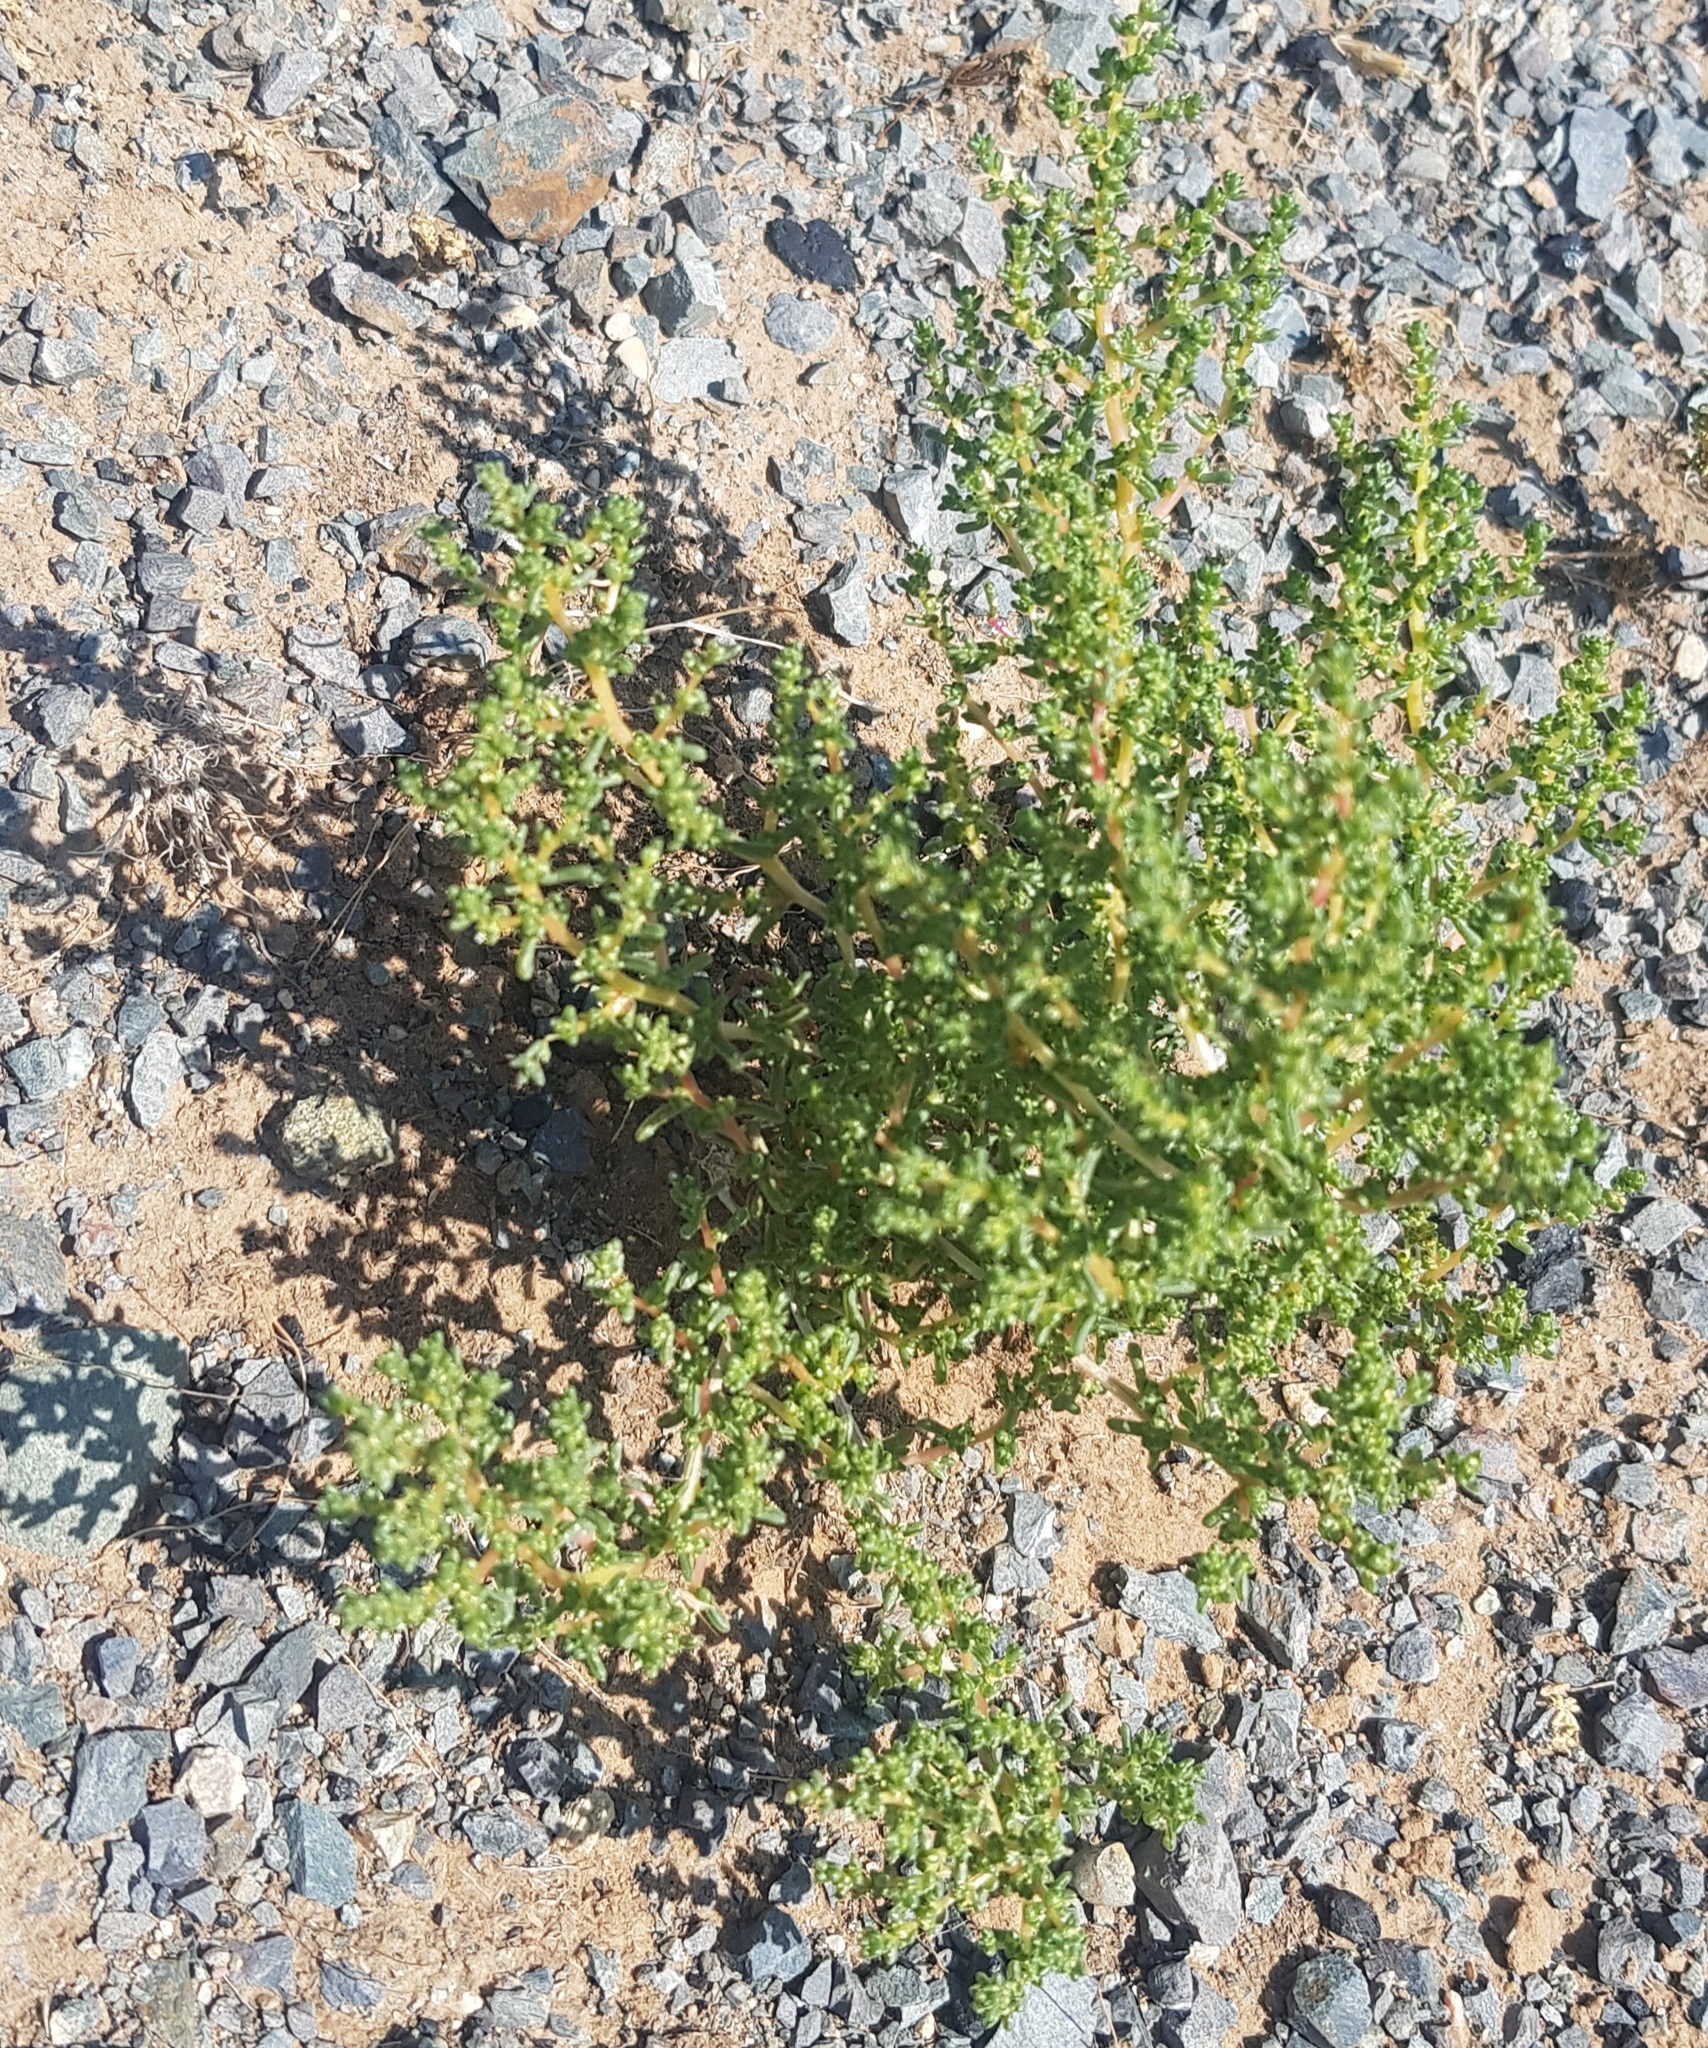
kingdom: Plantae
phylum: Tracheophyta
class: Magnoliopsida
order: Caryophyllales
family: Amaranthaceae
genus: Halogeton
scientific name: Halogeton arachnoides
